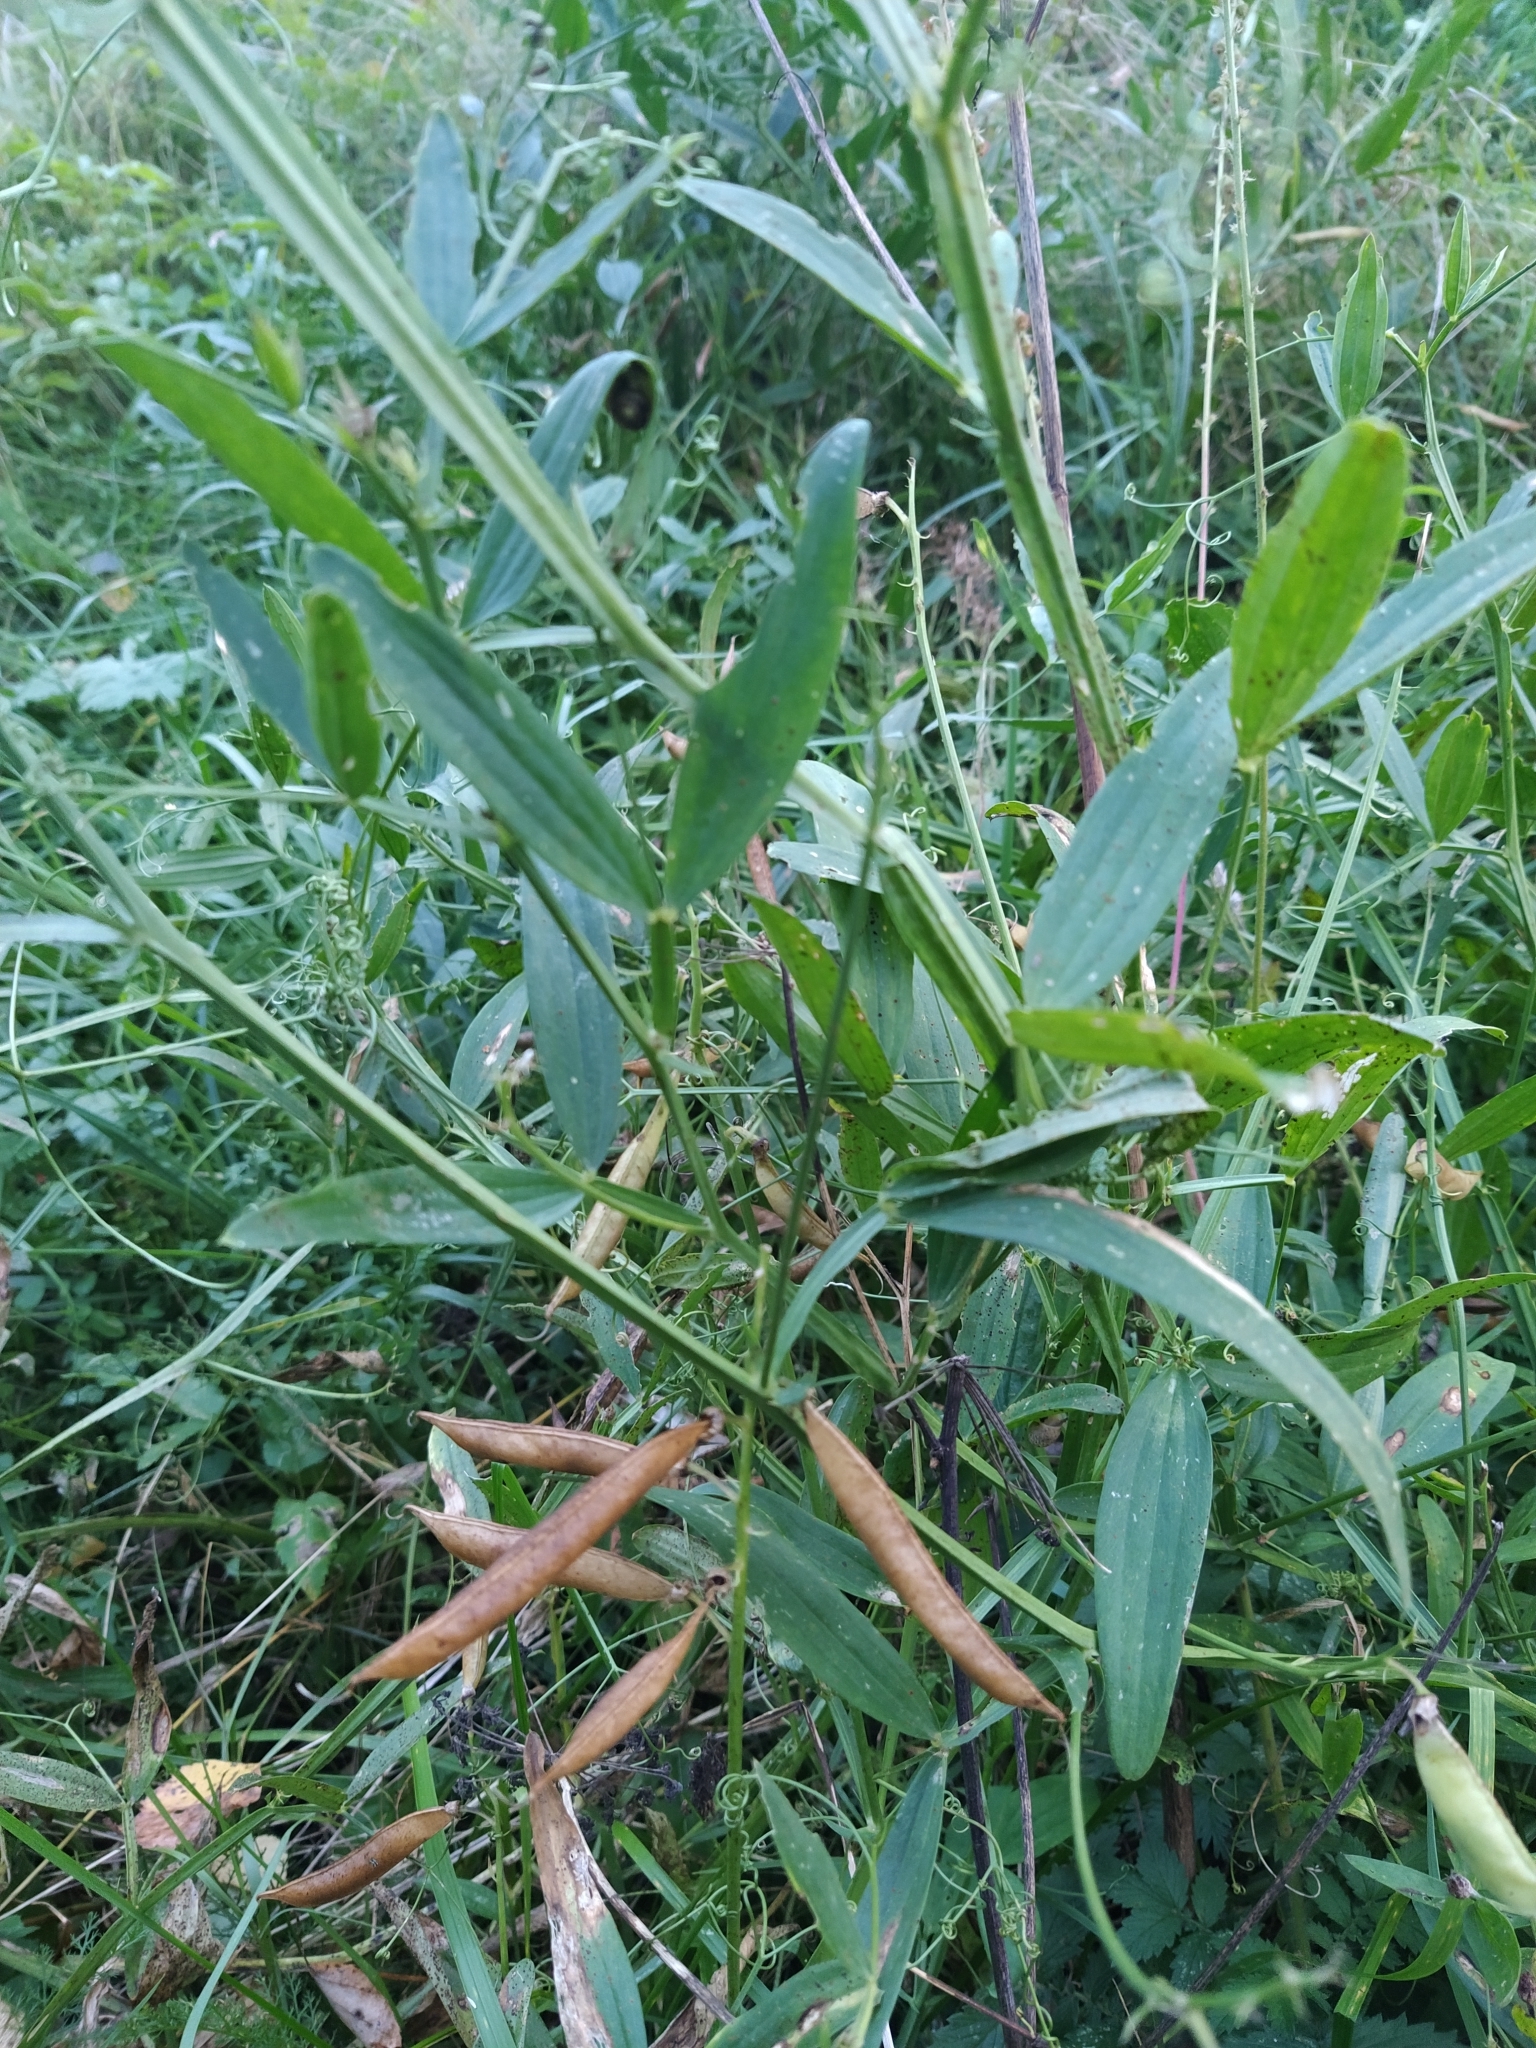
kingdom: Plantae
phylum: Tracheophyta
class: Magnoliopsida
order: Fabales
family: Fabaceae
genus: Lathyrus
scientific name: Lathyrus sylvestris
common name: Flat pea
